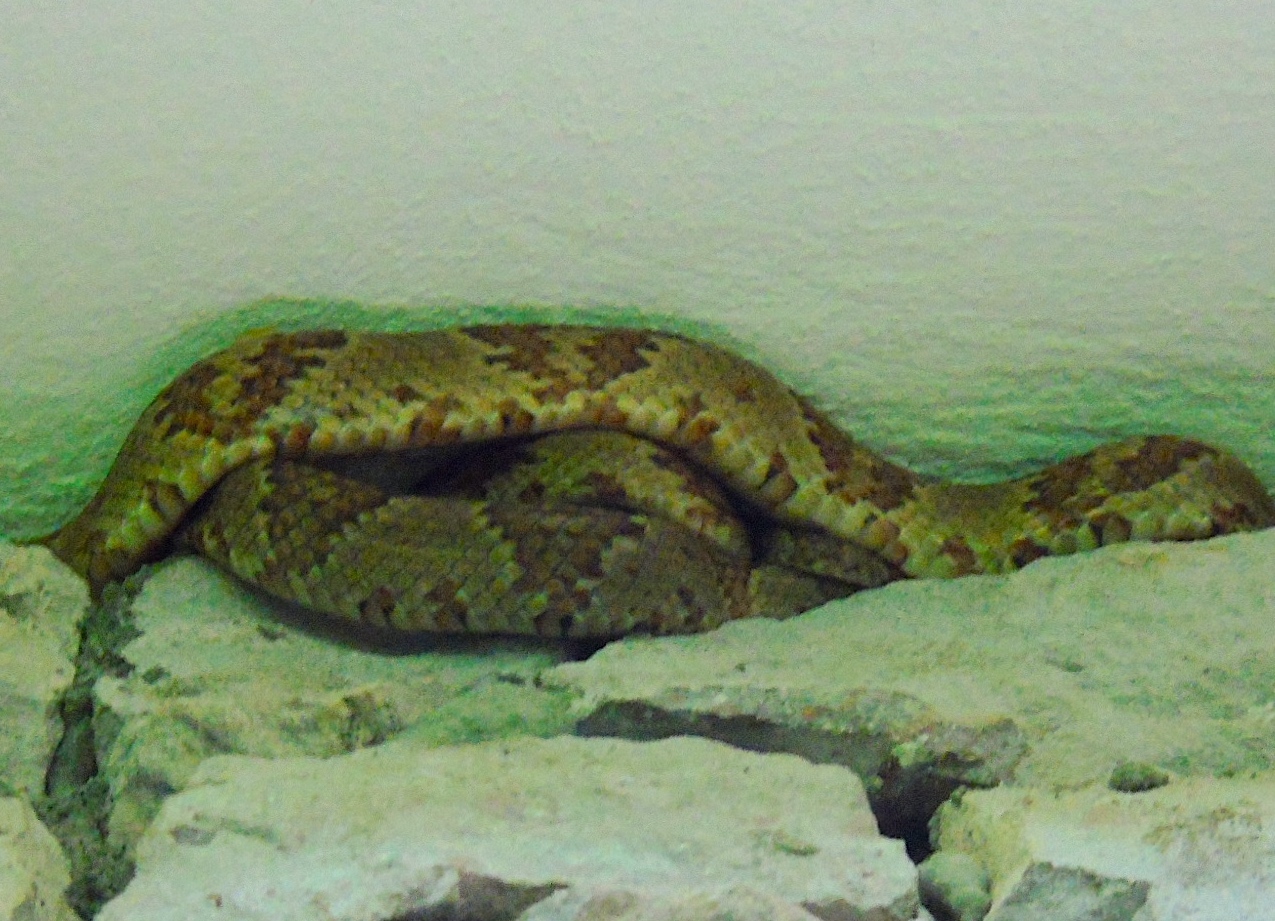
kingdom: Animalia
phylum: Chordata
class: Squamata
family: Colubridae
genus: Trimorphodon
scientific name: Trimorphodon paucimaculatus
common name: Sinaloan lyresnake
